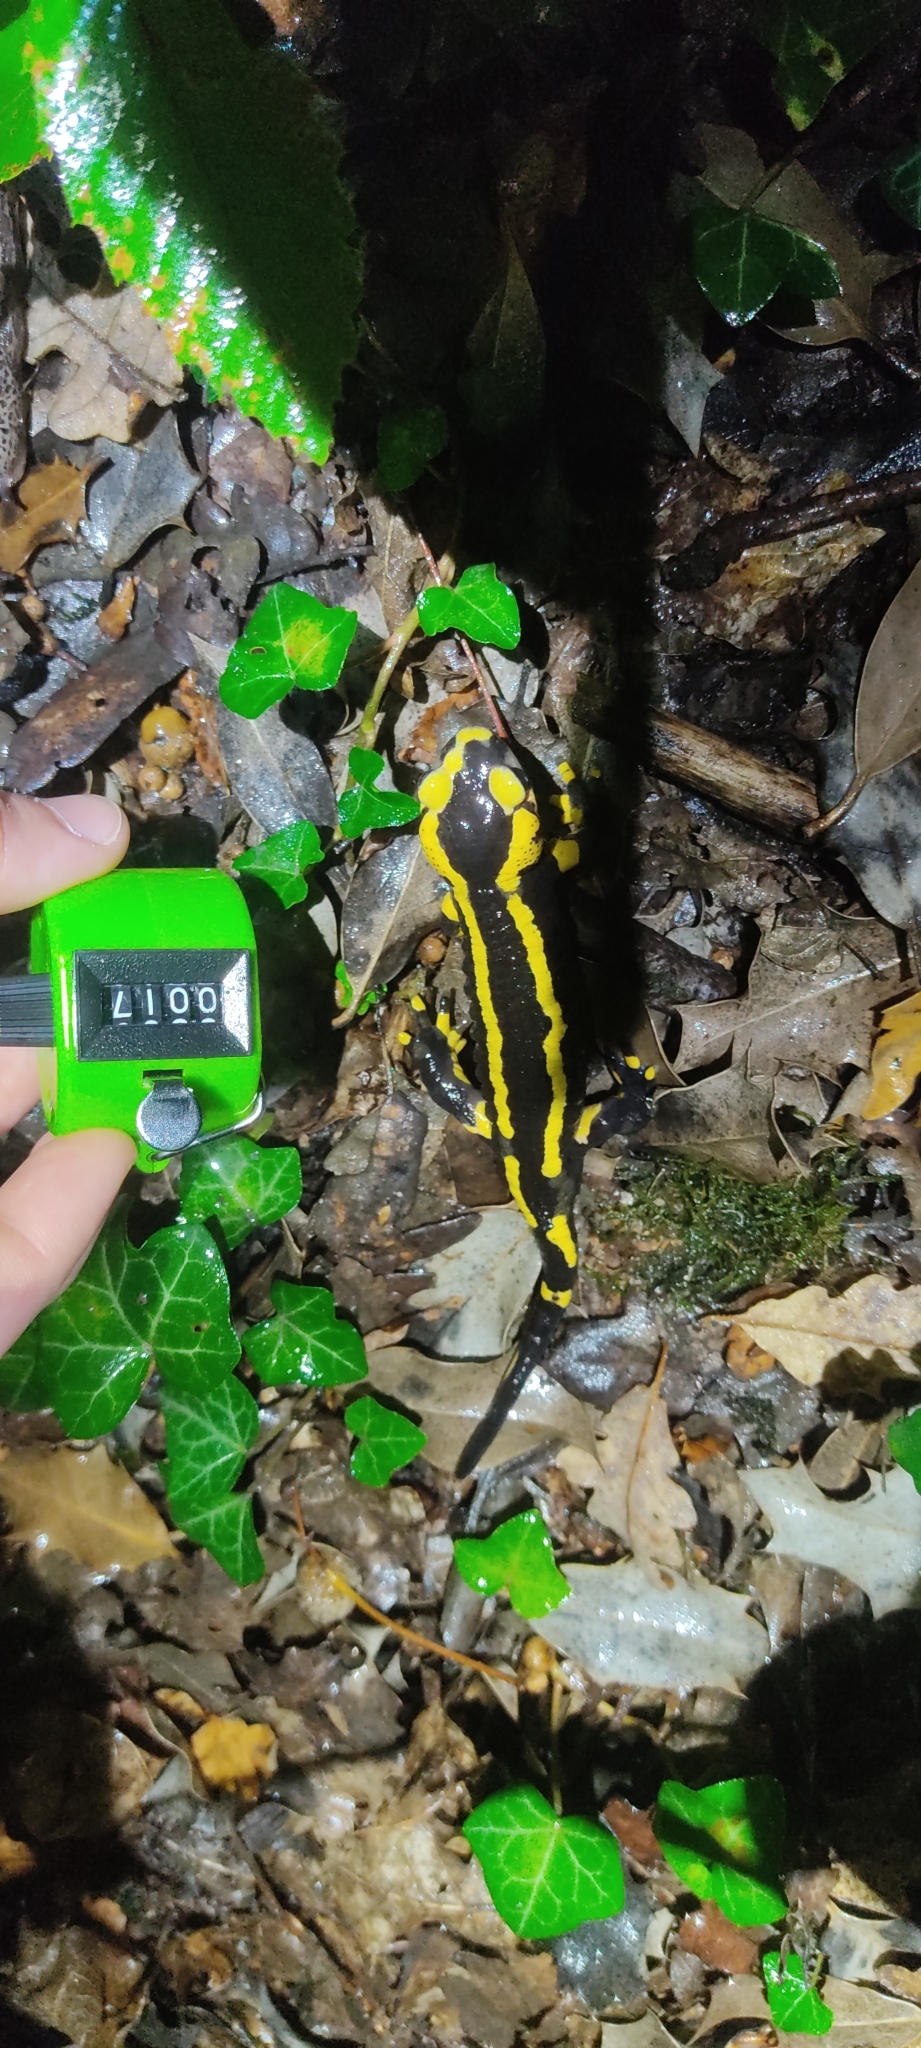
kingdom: Animalia
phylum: Chordata
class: Amphibia
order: Caudata
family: Salamandridae
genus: Salamandra
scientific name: Salamandra salamandra
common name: Fire salamander
